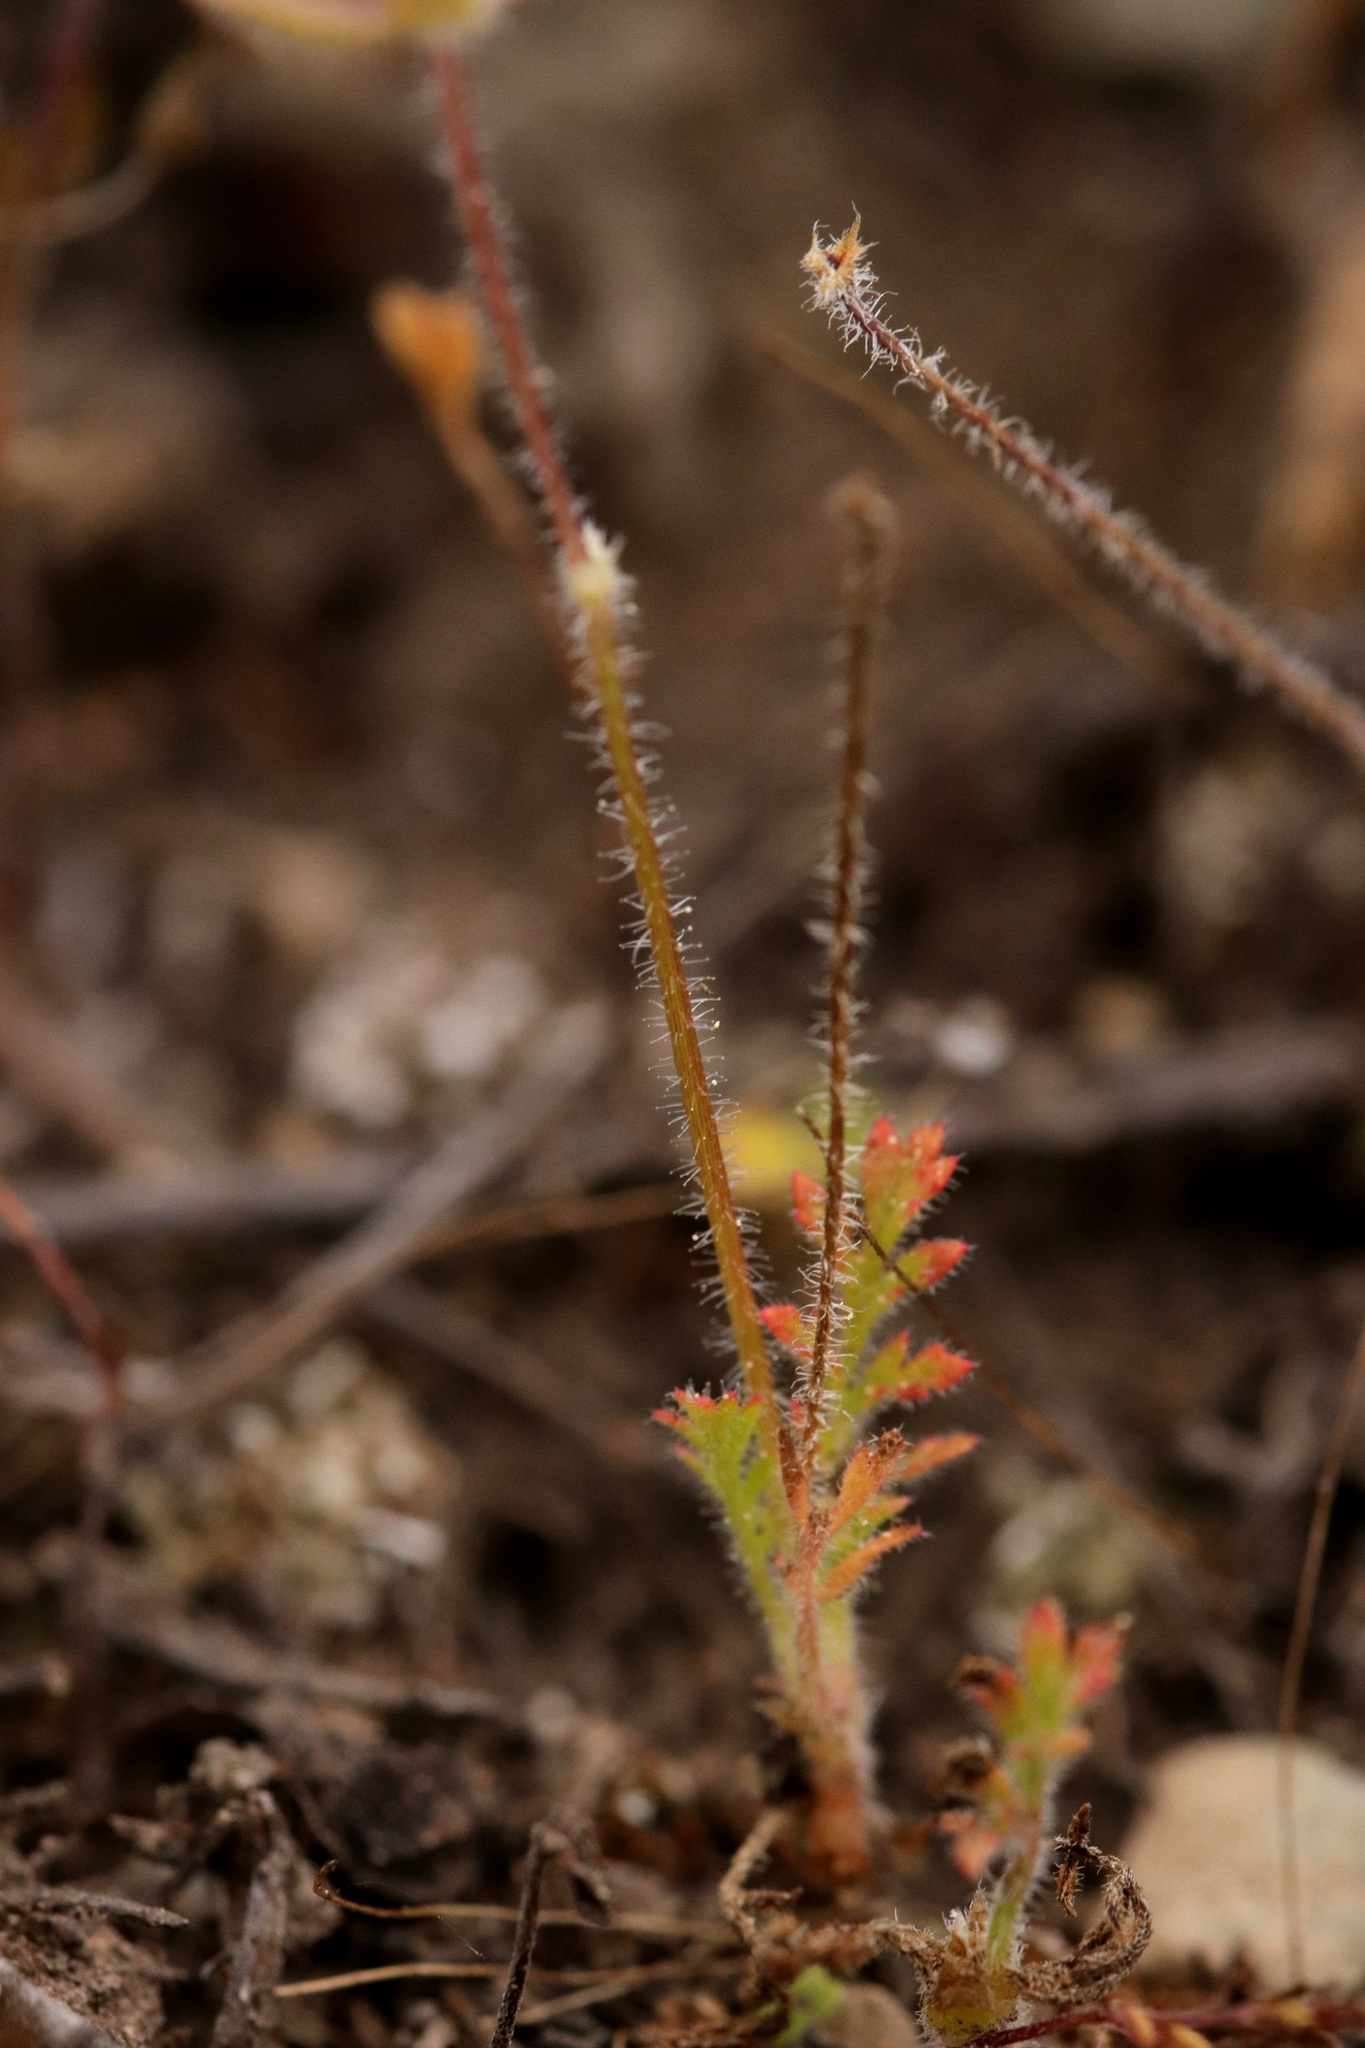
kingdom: Plantae
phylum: Tracheophyta
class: Magnoliopsida
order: Geraniales
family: Geraniaceae
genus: Erodium
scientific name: Erodium cicutarium
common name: Common stork's-bill
